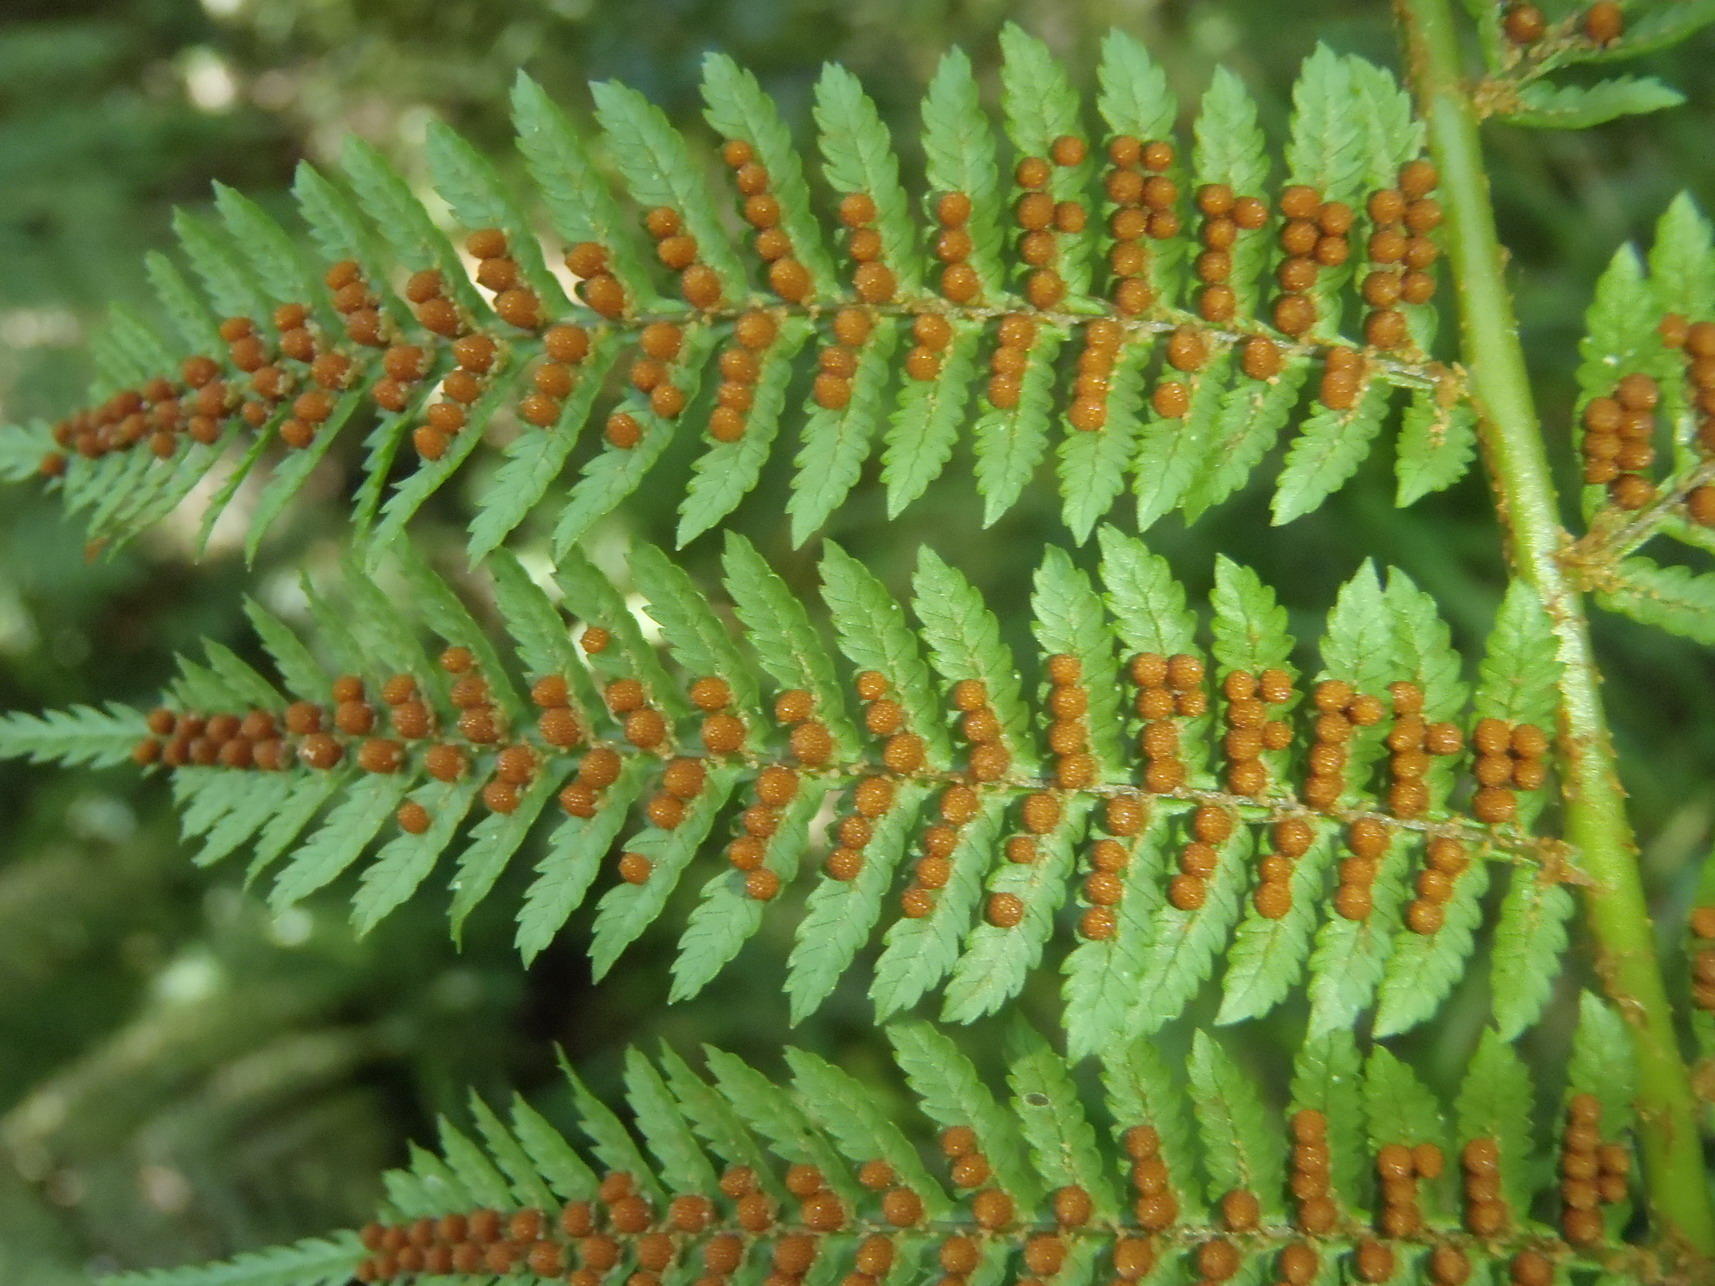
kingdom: Plantae
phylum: Tracheophyta
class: Polypodiopsida
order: Cyatheales
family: Cyatheaceae
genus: Gymnosphaera
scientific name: Gymnosphaera capensis
